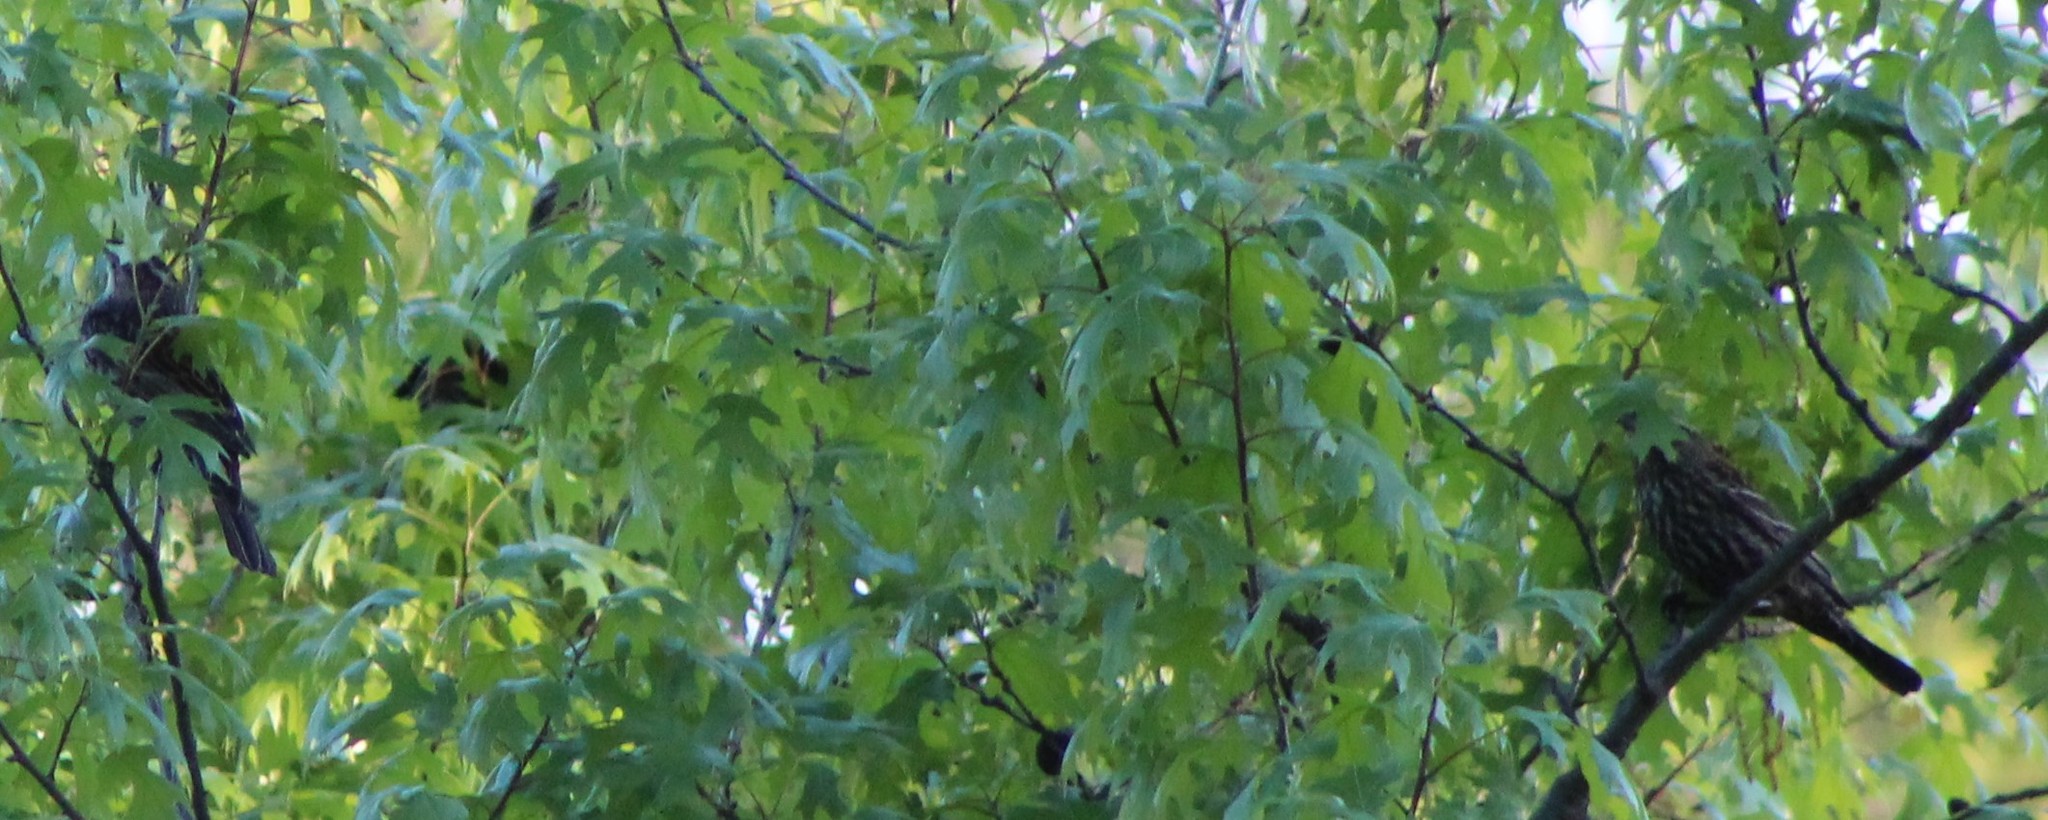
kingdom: Animalia
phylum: Chordata
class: Aves
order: Passeriformes
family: Icteridae
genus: Agelaius
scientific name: Agelaius phoeniceus
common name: Red-winged blackbird
